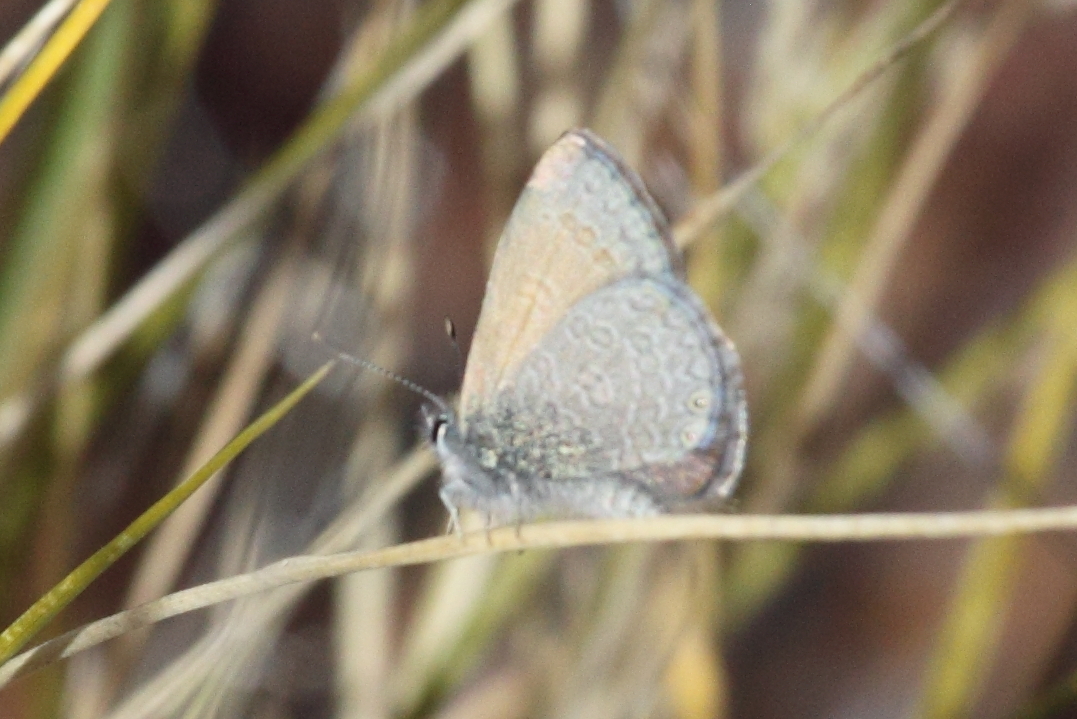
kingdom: Animalia
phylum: Arthropoda
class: Insecta
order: Lepidoptera
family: Lycaenidae
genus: Nacaduba
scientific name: Nacaduba biocellata
